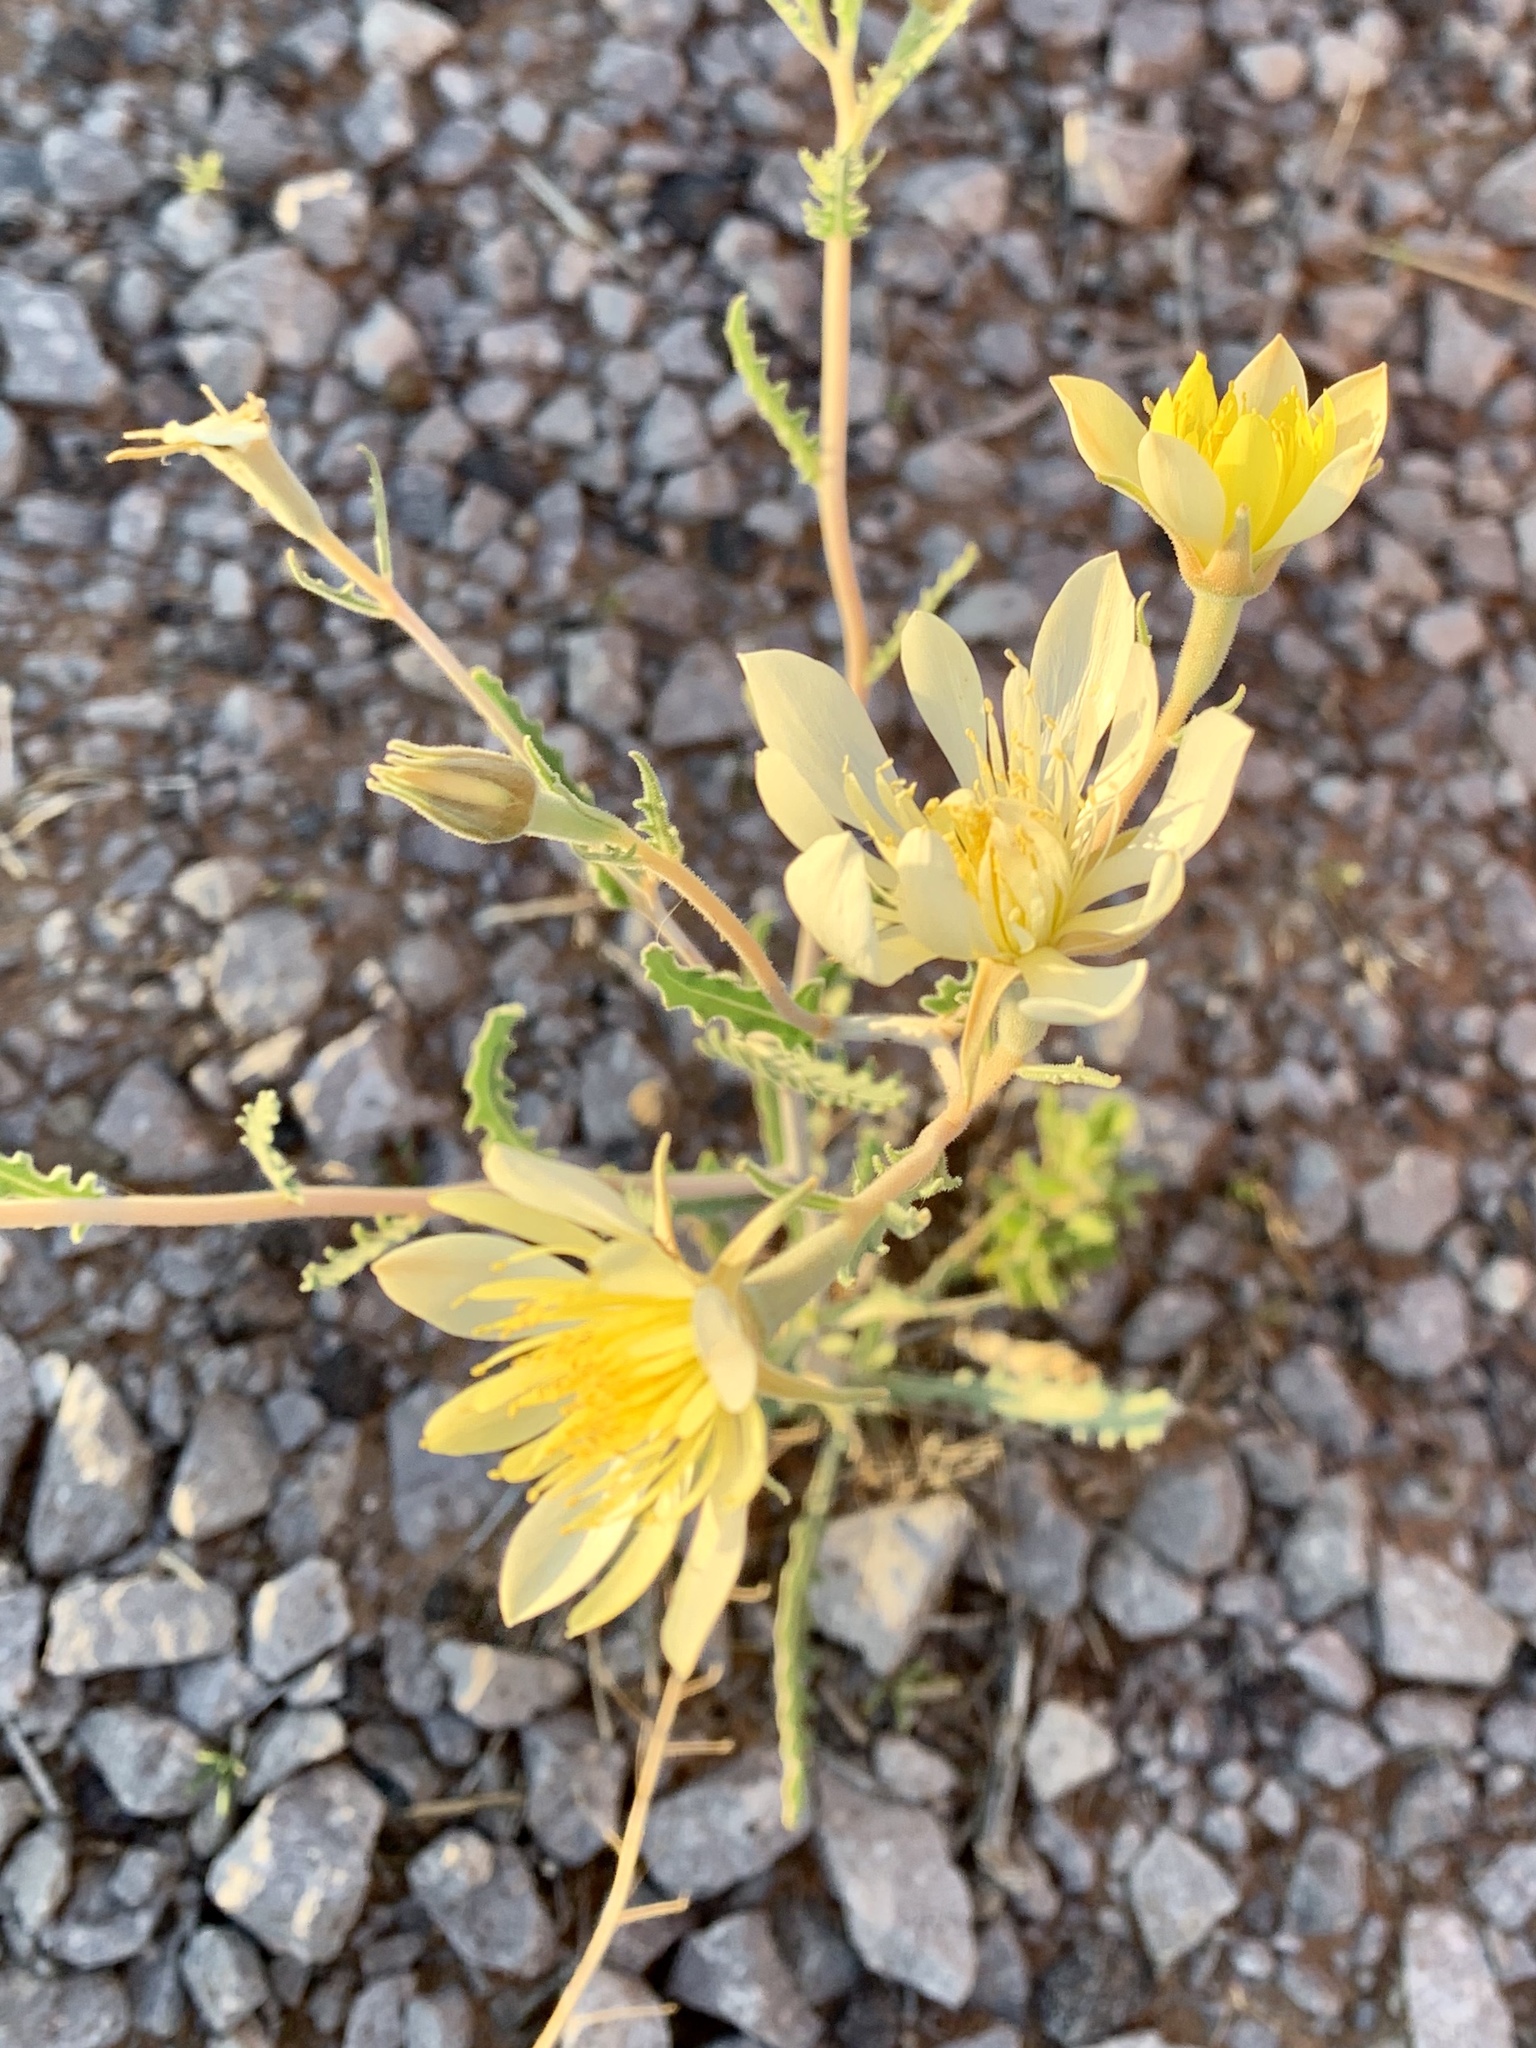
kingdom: Plantae
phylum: Tracheophyta
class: Magnoliopsida
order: Cornales
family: Loasaceae
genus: Mentzelia
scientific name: Mentzelia procera
